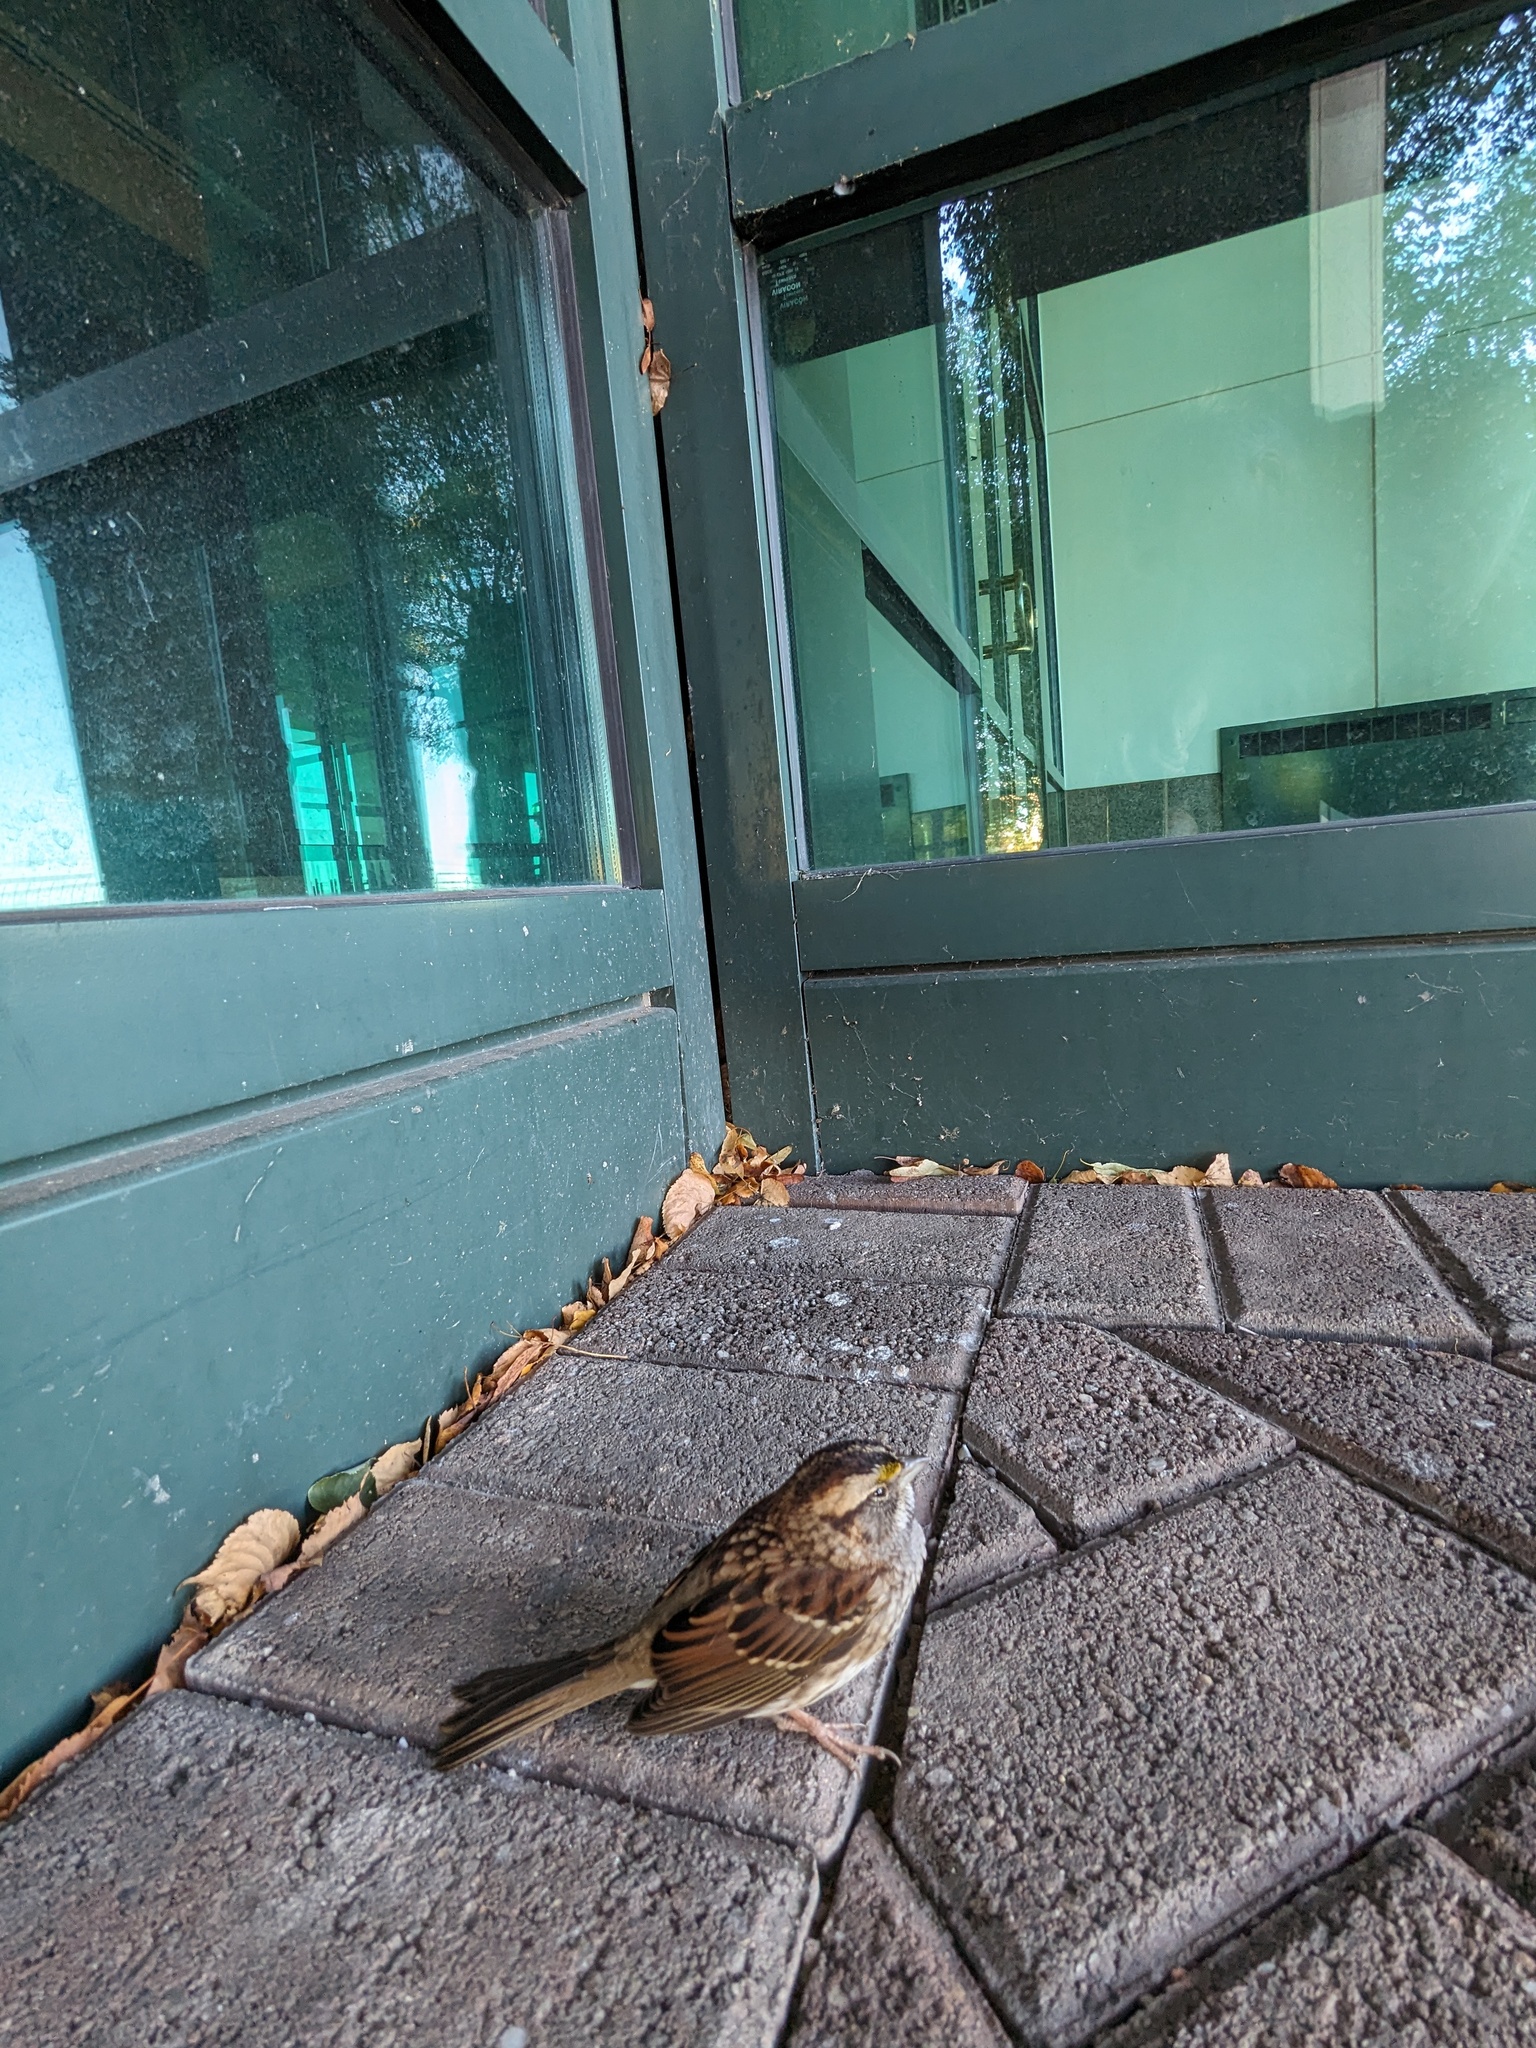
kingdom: Animalia
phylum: Chordata
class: Aves
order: Passeriformes
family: Passerellidae
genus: Zonotrichia
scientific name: Zonotrichia albicollis
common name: White-throated sparrow
